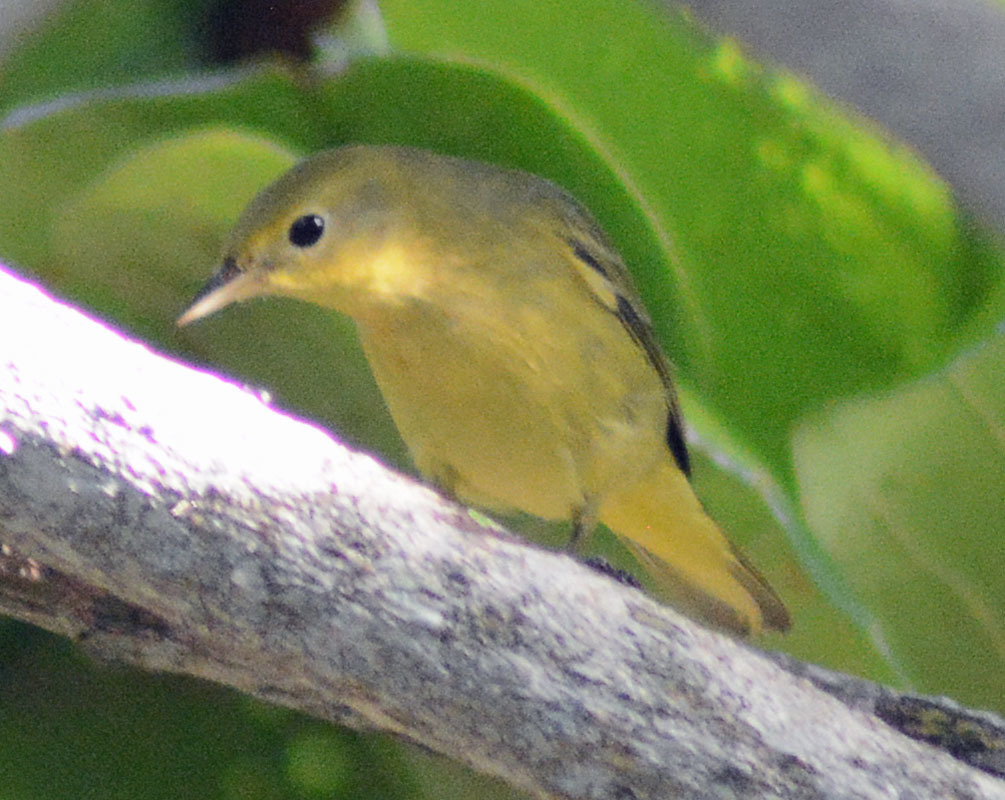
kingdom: Animalia
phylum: Chordata
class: Aves
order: Passeriformes
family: Parulidae
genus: Setophaga
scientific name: Setophaga petechia
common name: Yellow warbler
